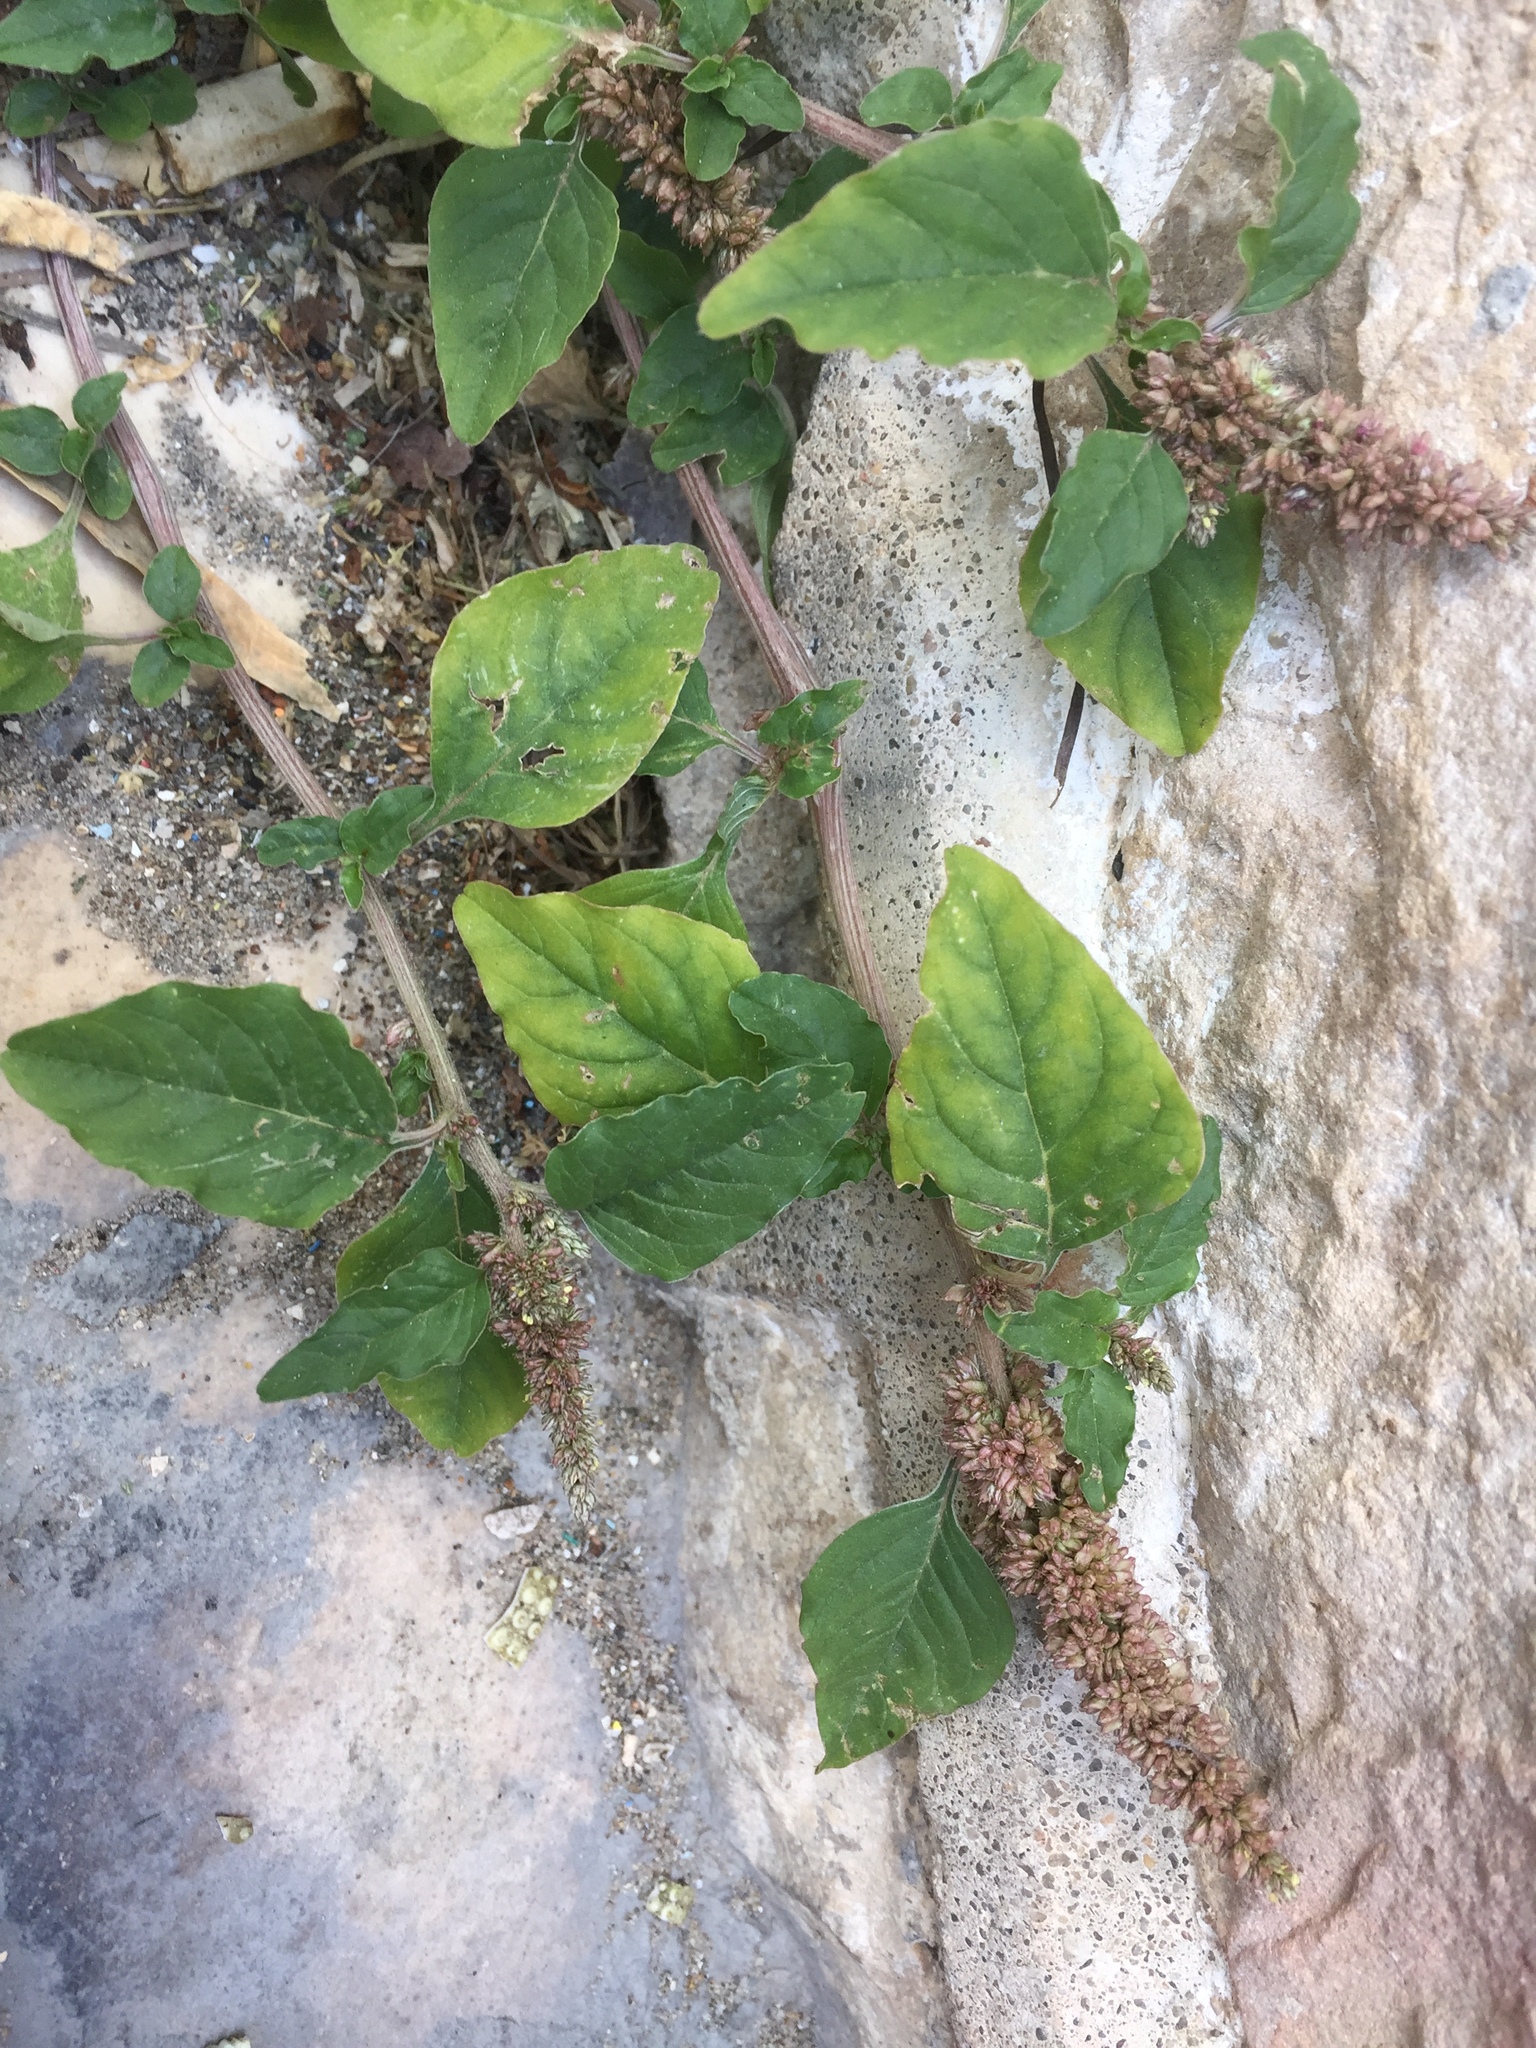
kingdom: Plantae
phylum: Tracheophyta
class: Magnoliopsida
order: Caryophyllales
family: Amaranthaceae
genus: Amaranthus
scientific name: Amaranthus deflexus
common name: Perennial pigweed
